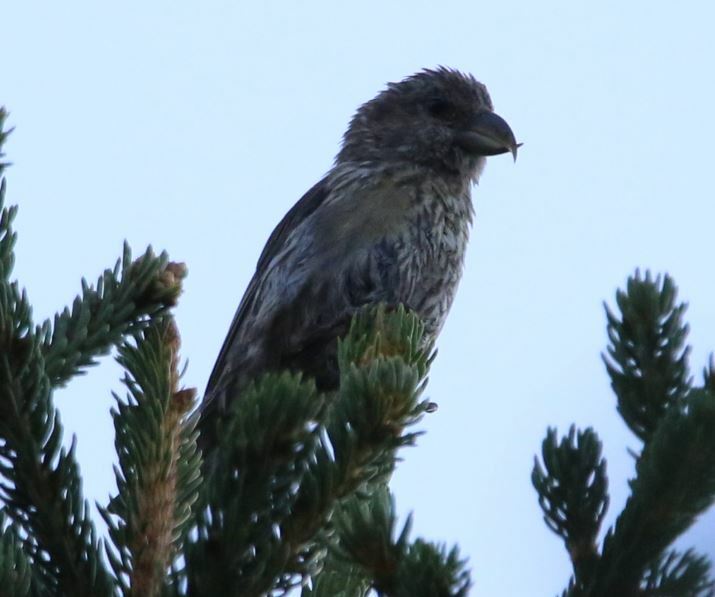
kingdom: Animalia
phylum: Chordata
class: Aves
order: Passeriformes
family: Fringillidae
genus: Loxia
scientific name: Loxia curvirostra
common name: Red crossbill
